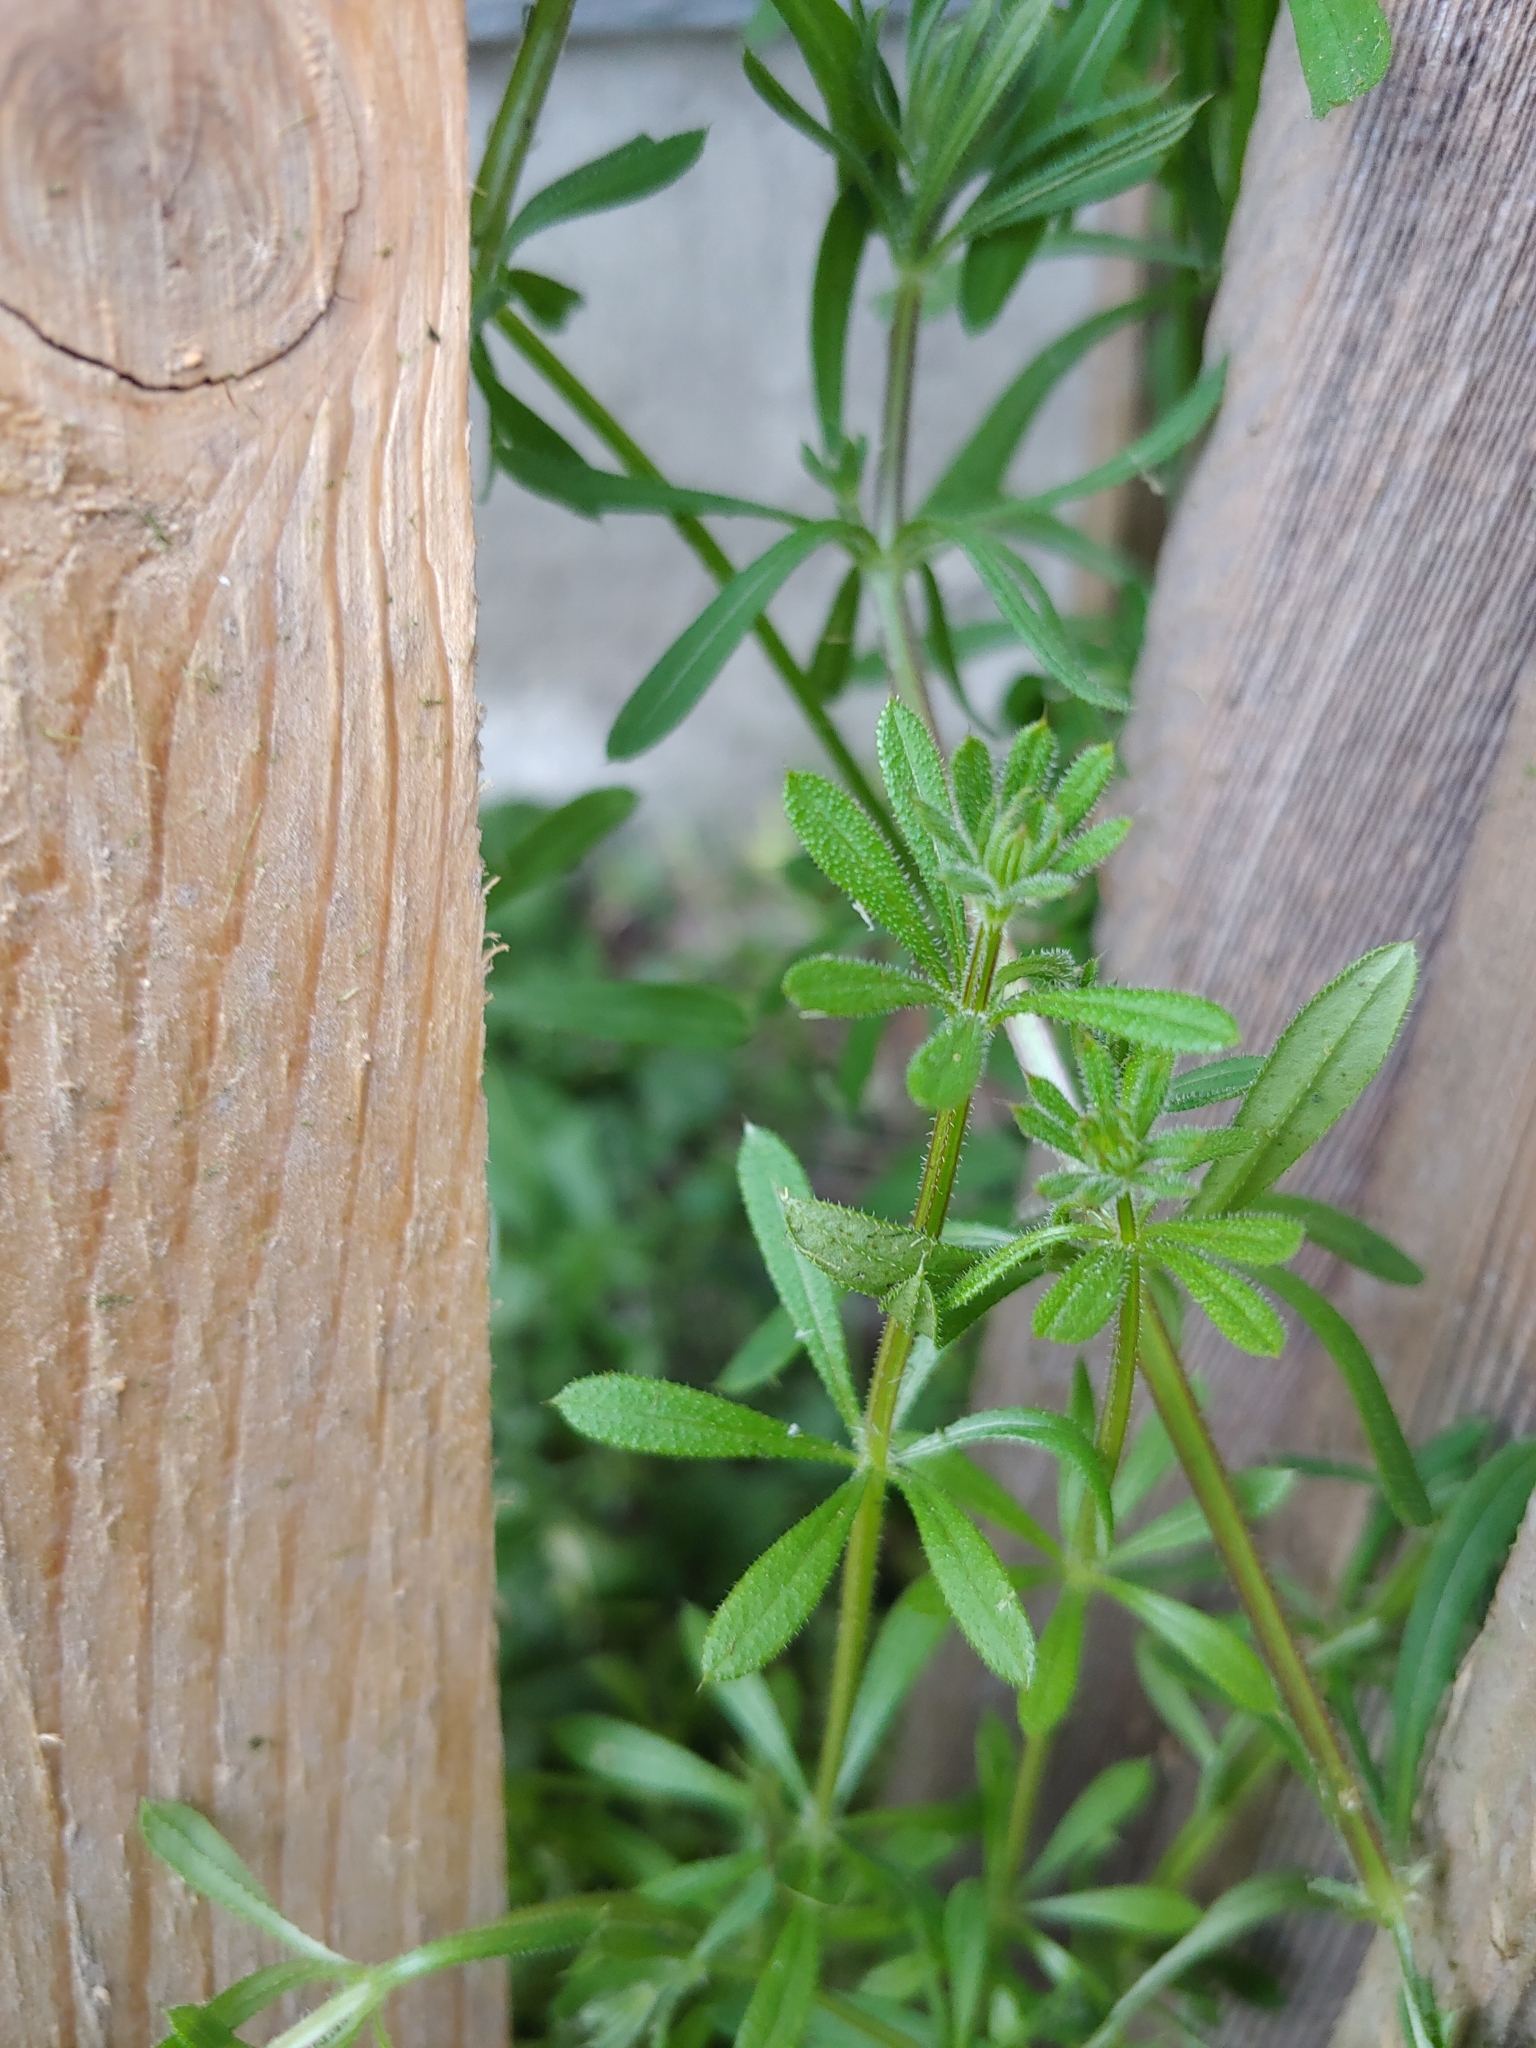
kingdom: Plantae
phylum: Tracheophyta
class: Magnoliopsida
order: Gentianales
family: Rubiaceae
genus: Galium
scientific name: Galium aparine
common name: Cleavers
